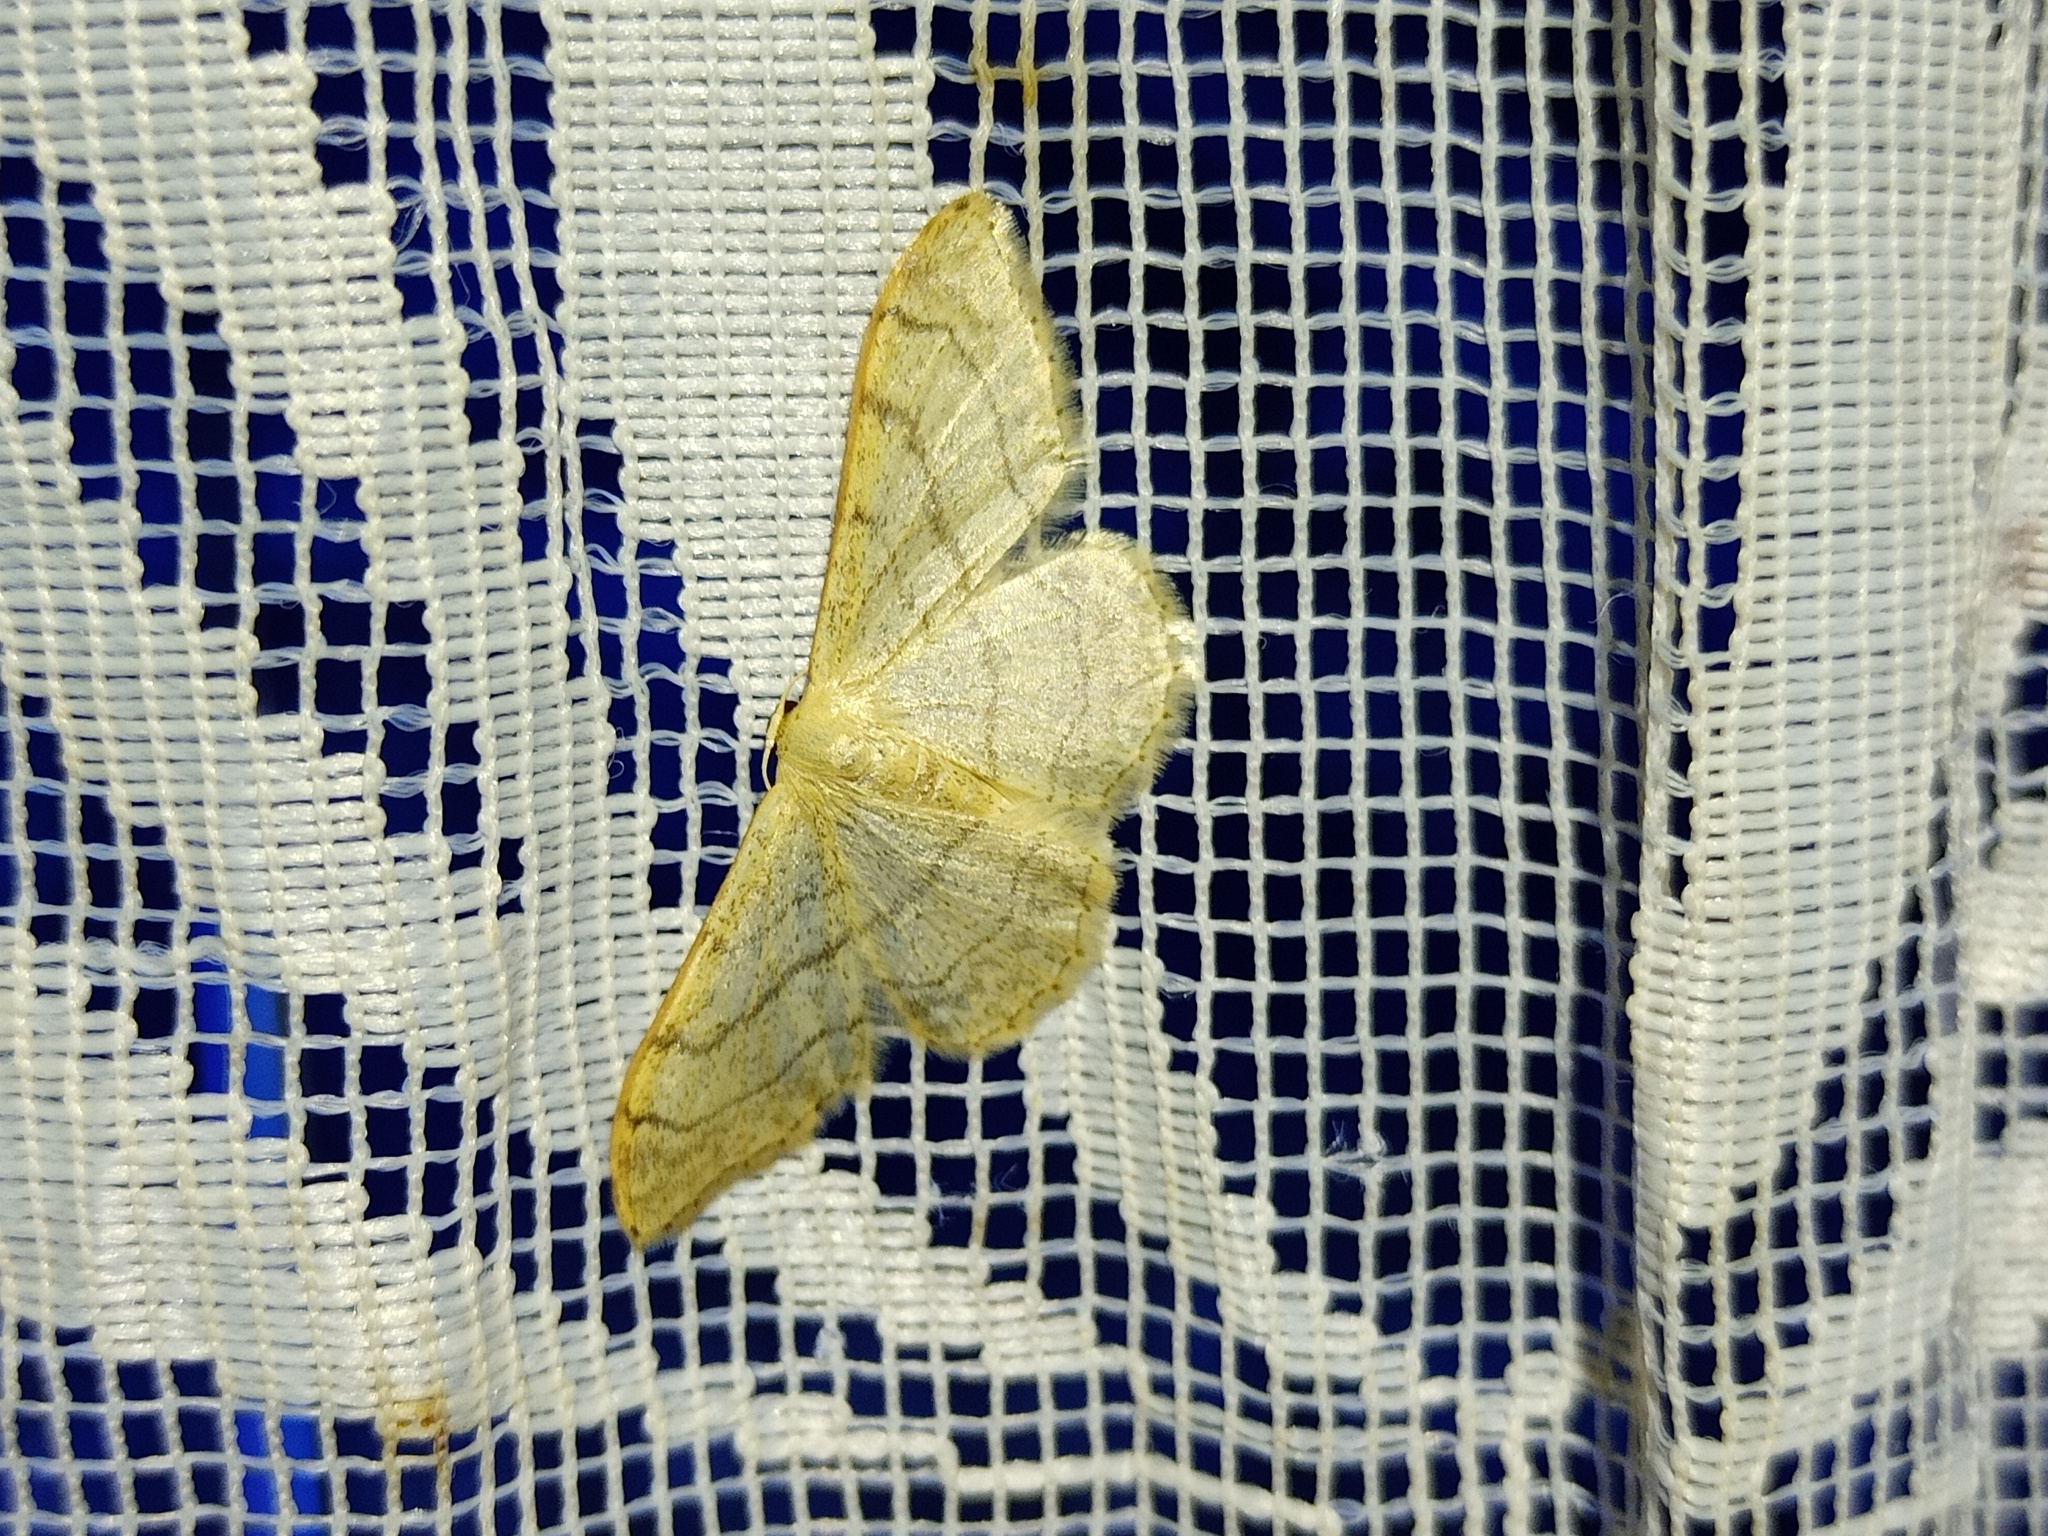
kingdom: Animalia
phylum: Arthropoda
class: Insecta
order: Lepidoptera
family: Geometridae
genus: Idaea
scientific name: Idaea aversata
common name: Riband wave
